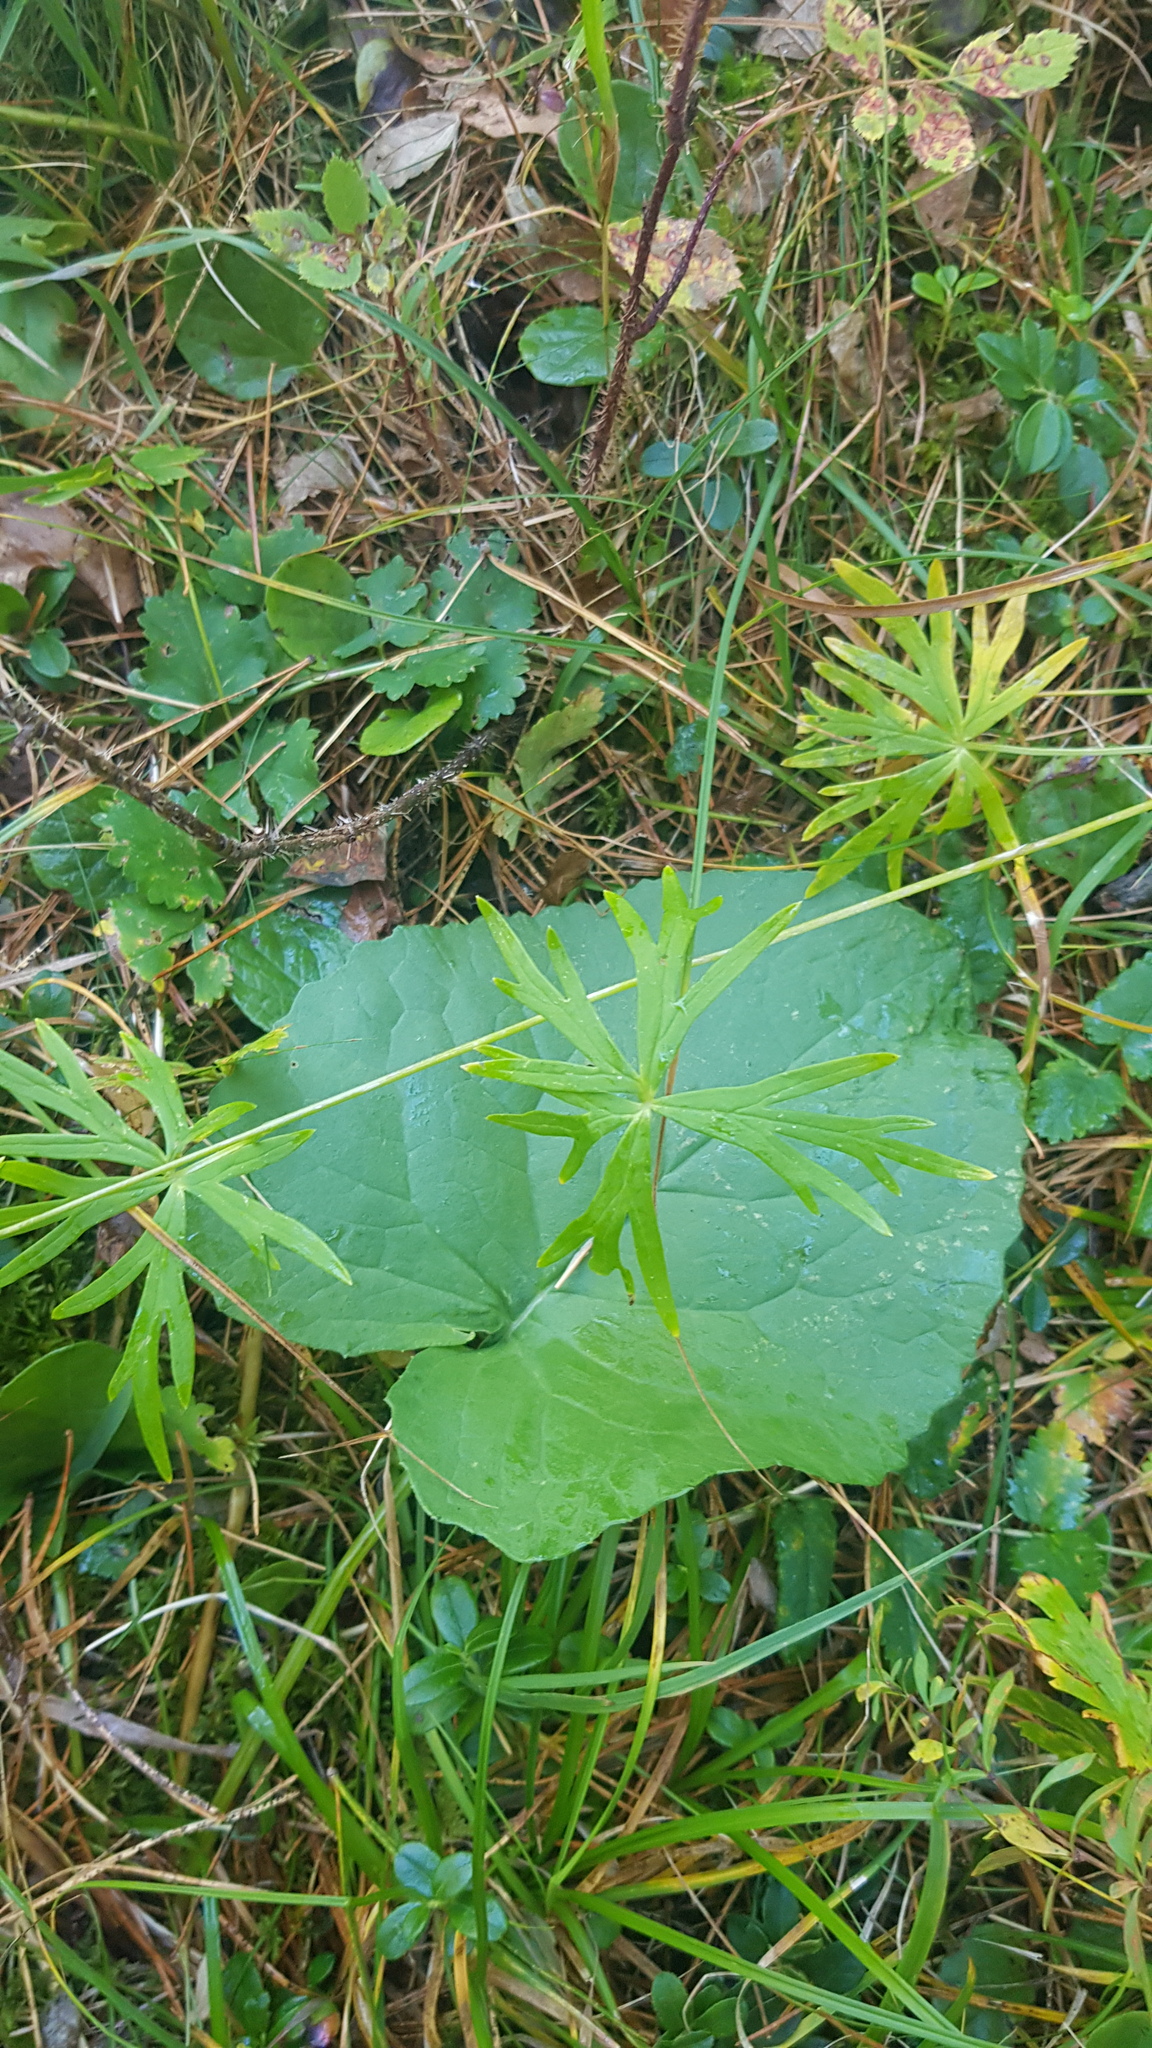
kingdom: Plantae
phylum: Tracheophyta
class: Magnoliopsida
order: Asterales
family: Asteraceae
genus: Ligularia
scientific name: Ligularia sibirica
